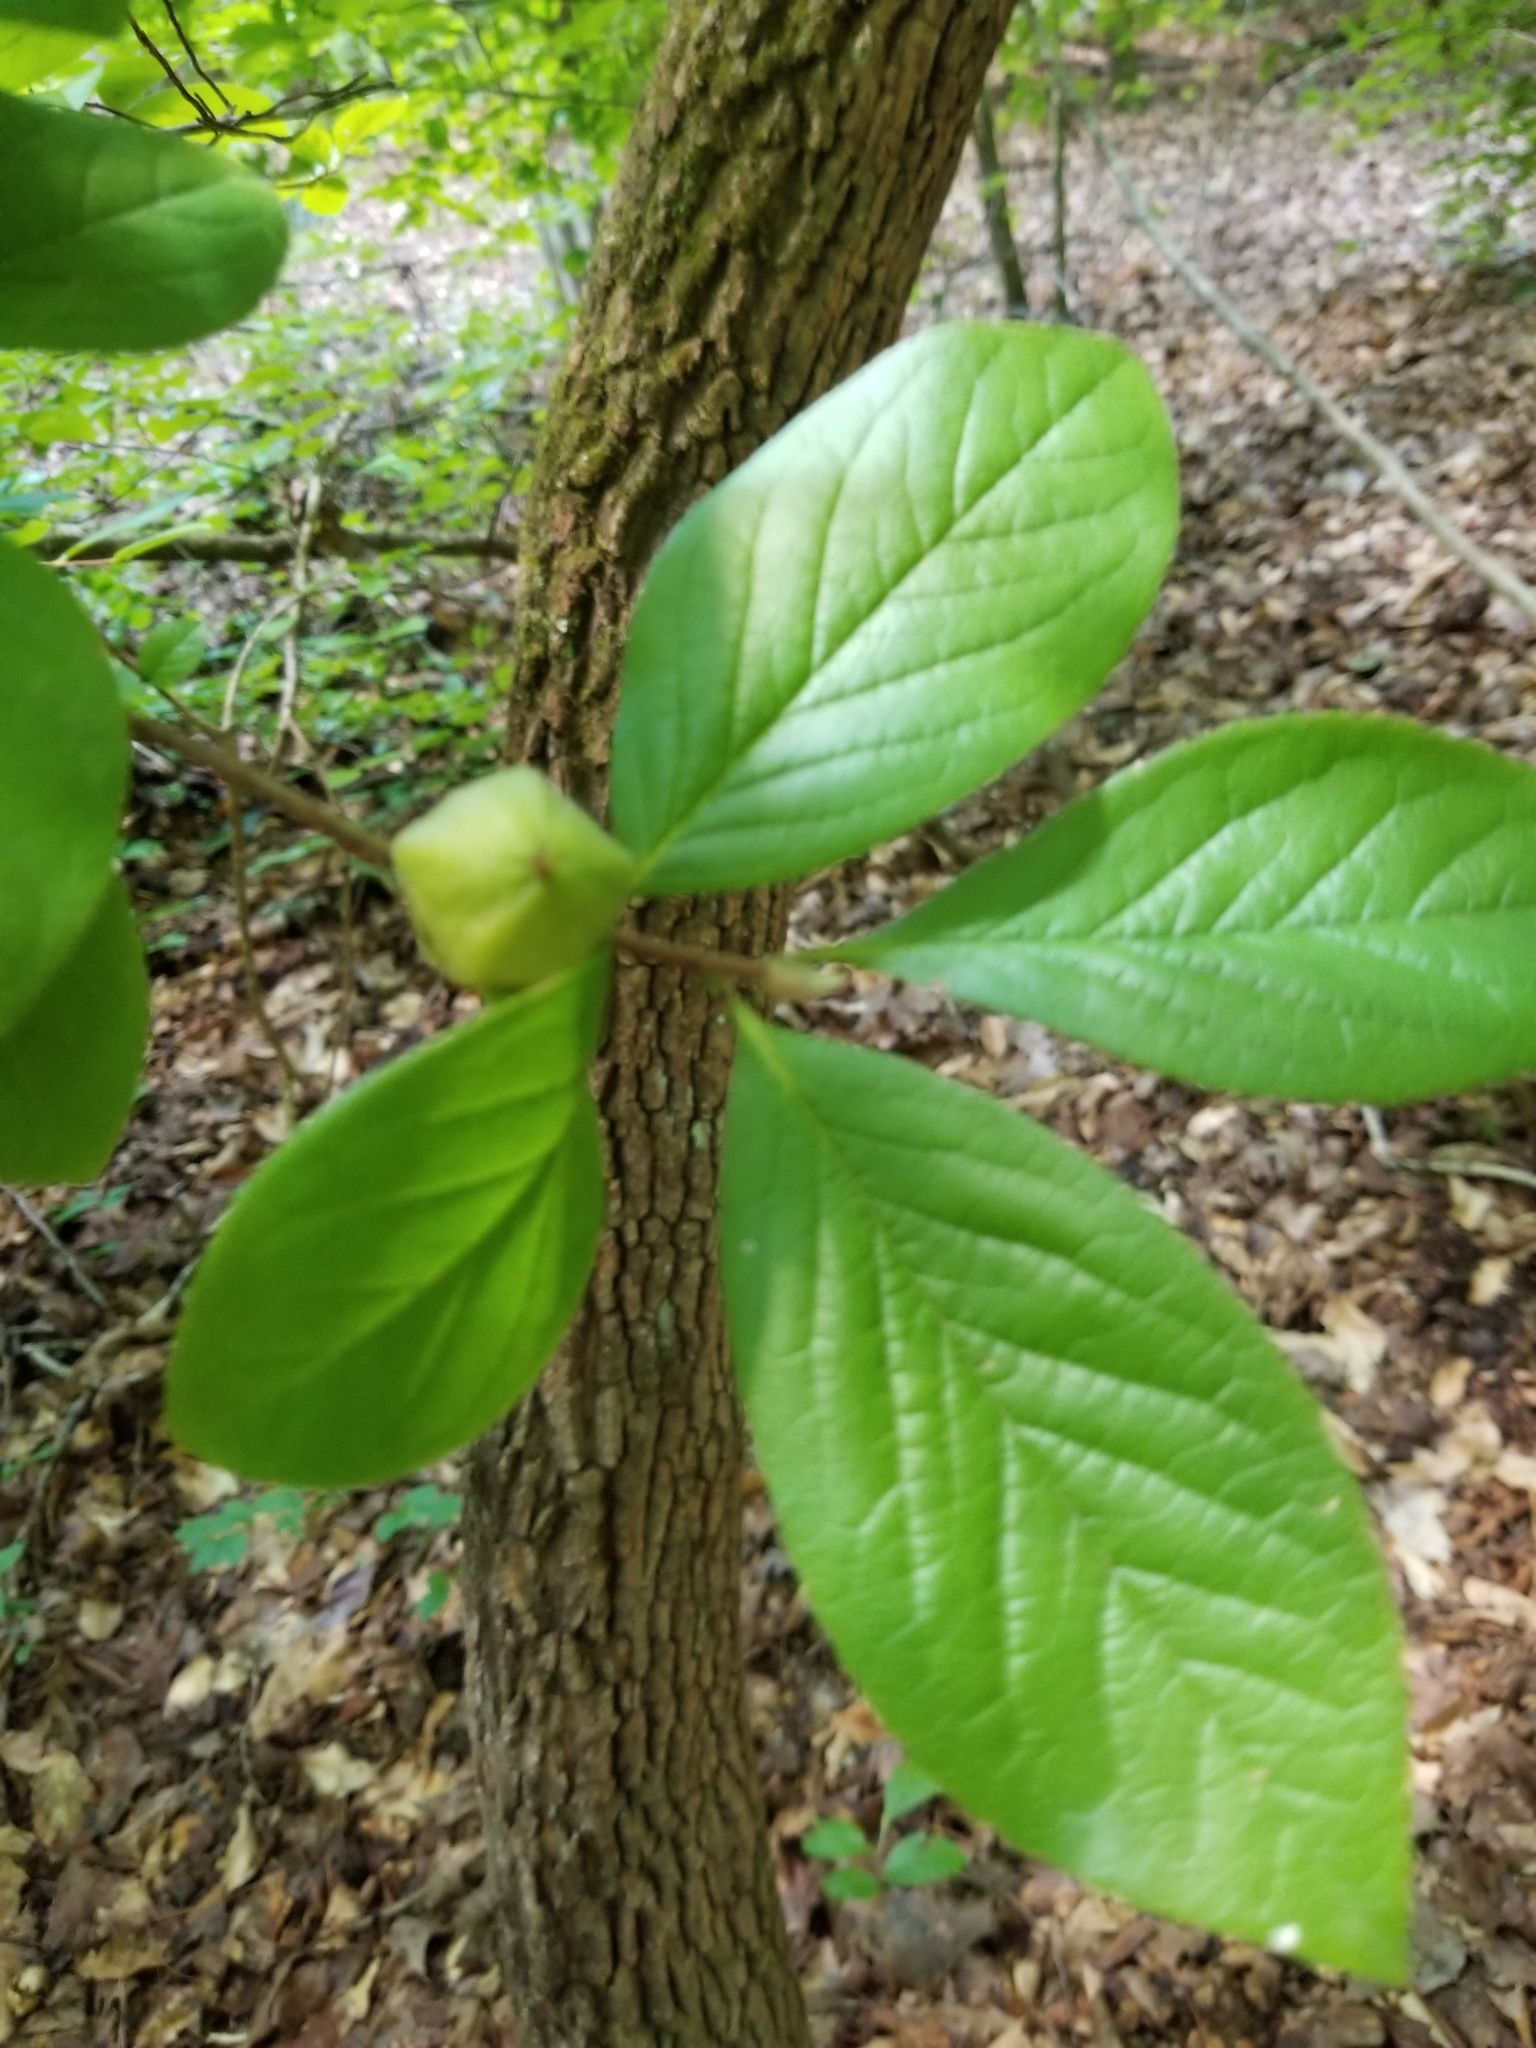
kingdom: Plantae
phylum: Tracheophyta
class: Magnoliopsida
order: Ericales
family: Theaceae
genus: Stewartia
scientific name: Stewartia malacodendron
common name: Virginia stewartia
